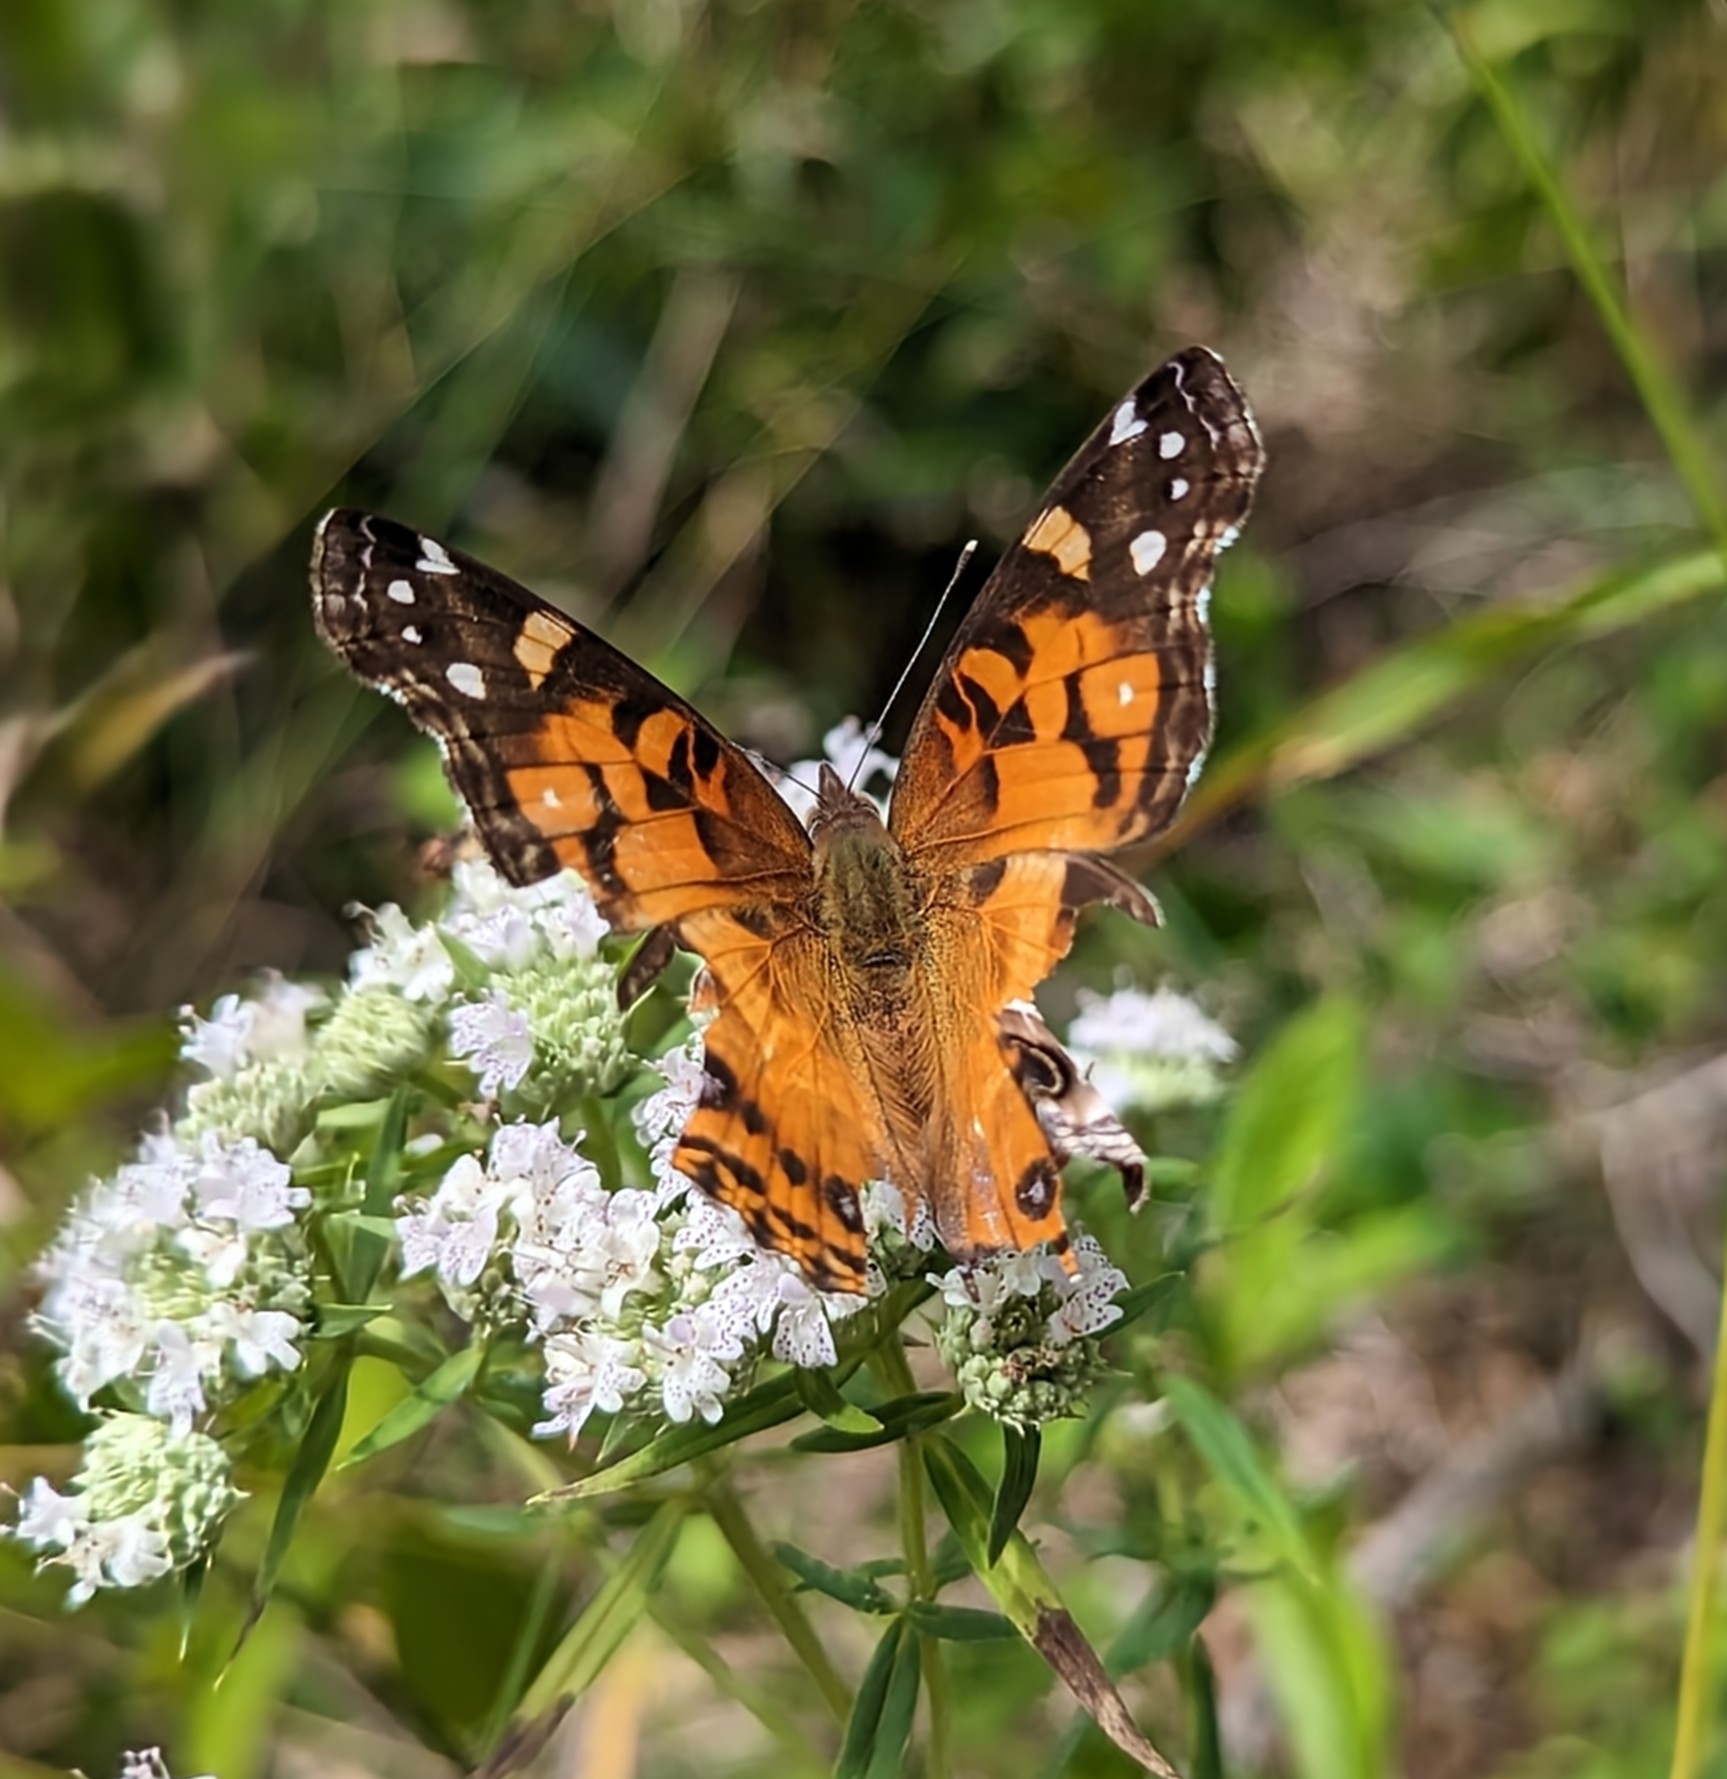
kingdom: Animalia
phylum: Arthropoda
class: Insecta
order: Lepidoptera
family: Nymphalidae
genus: Vanessa
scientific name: Vanessa virginiensis
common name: American lady
